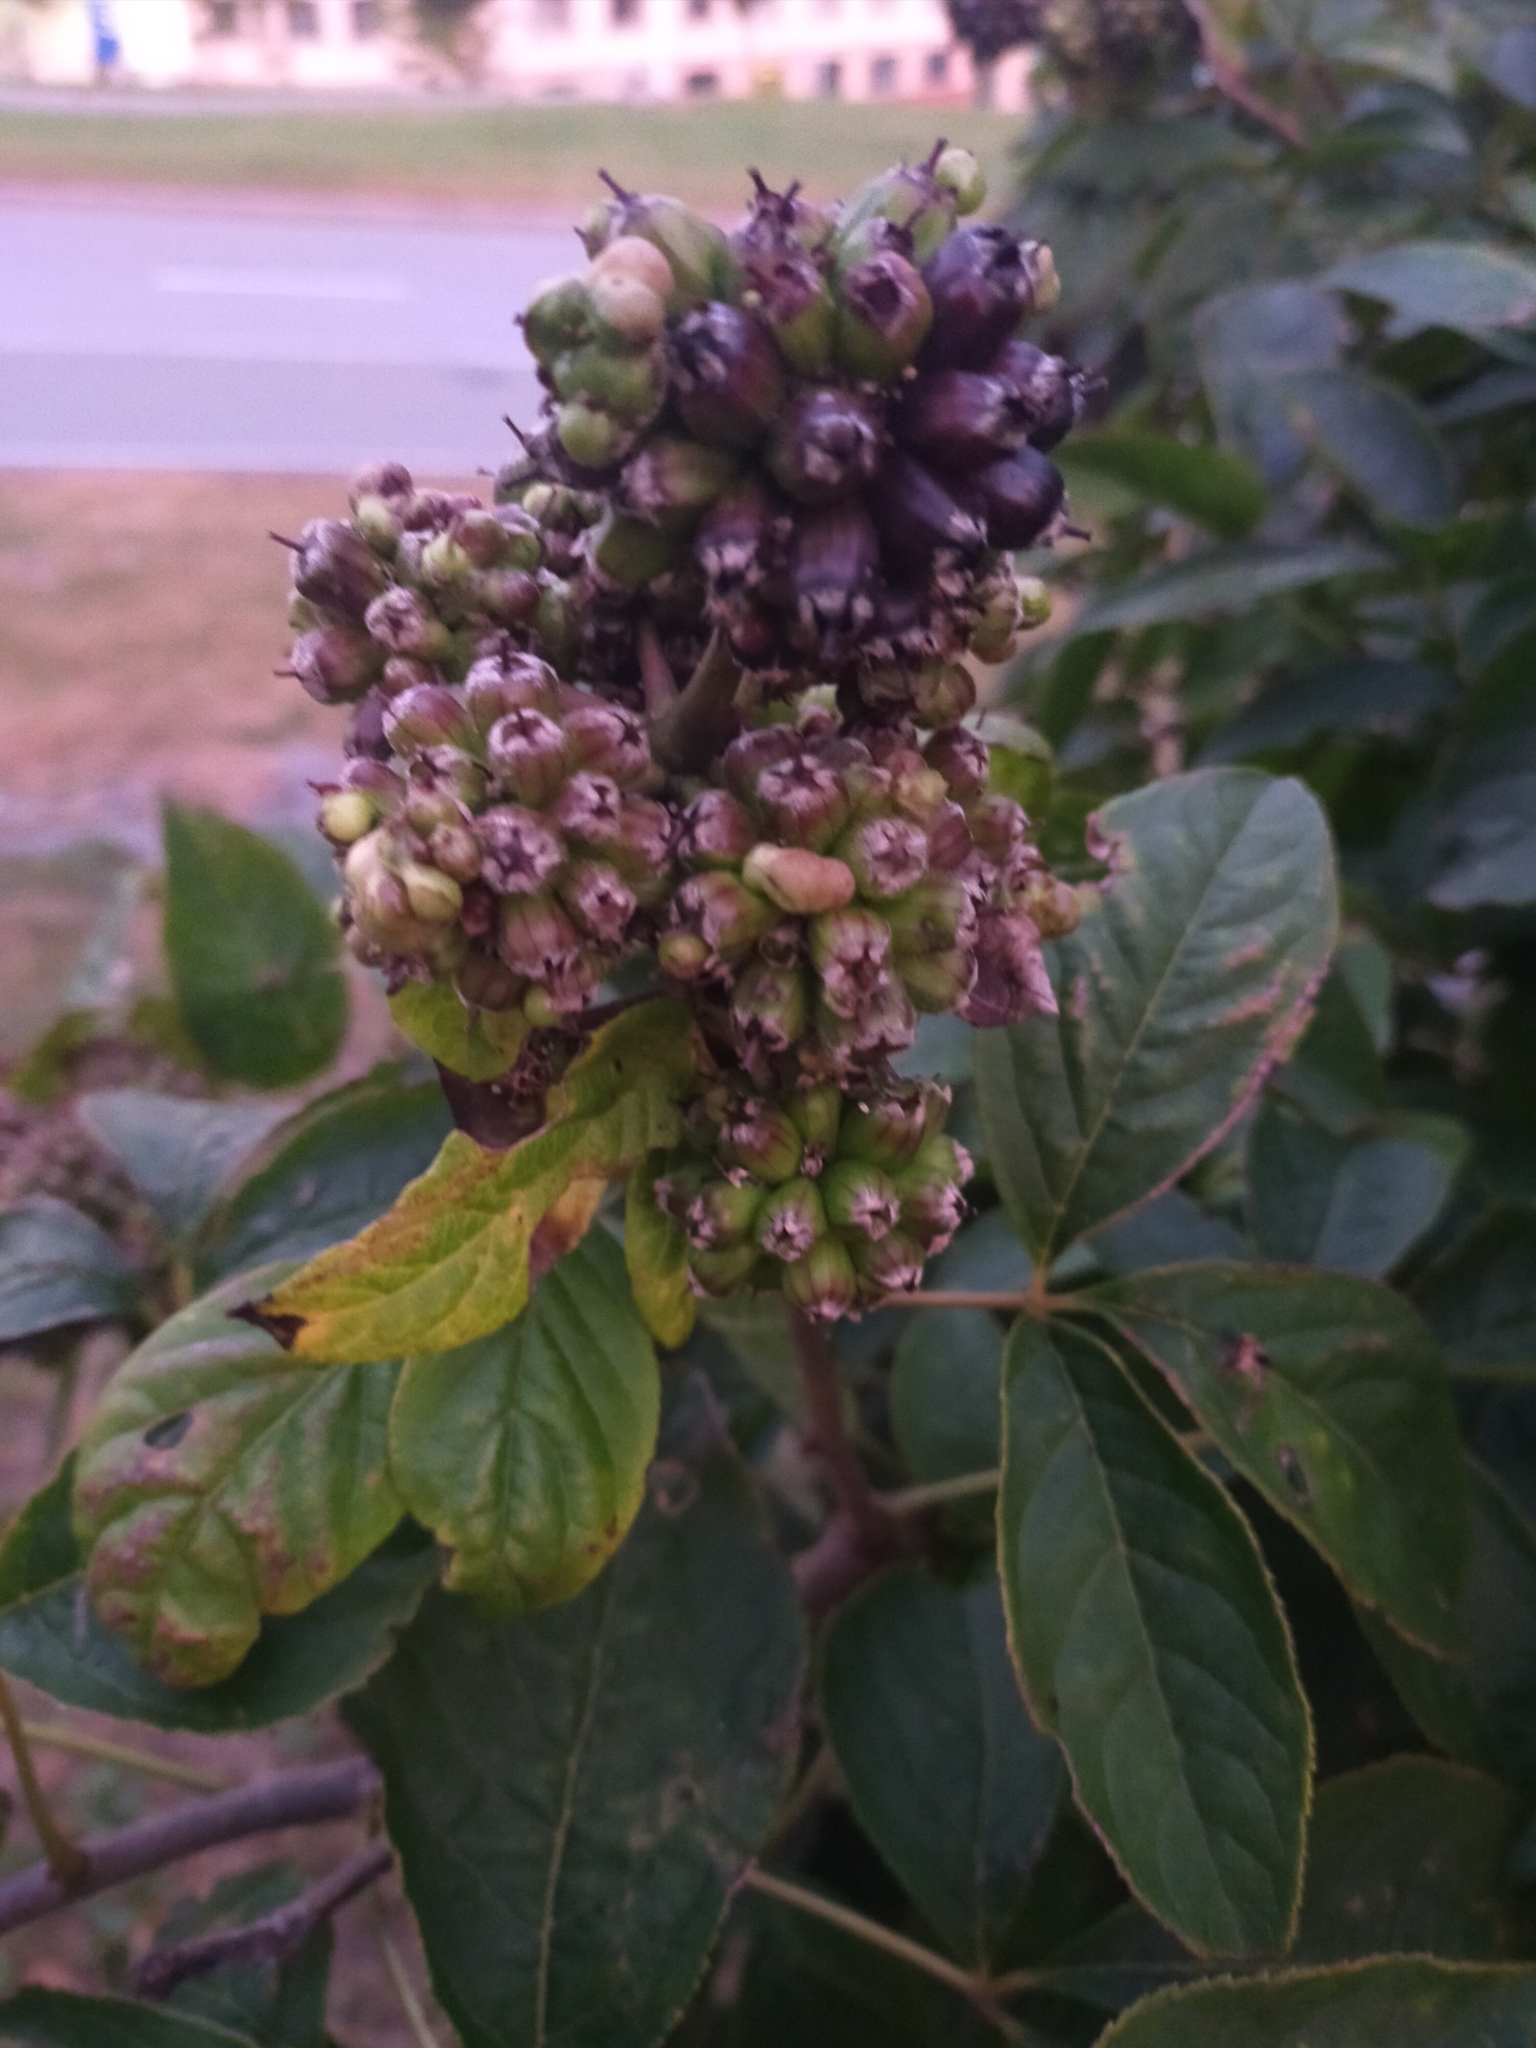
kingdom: Plantae
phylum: Tracheophyta
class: Magnoliopsida
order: Apiales
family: Araliaceae
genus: Eleutherococcus
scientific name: Eleutherococcus sessiliflorus
